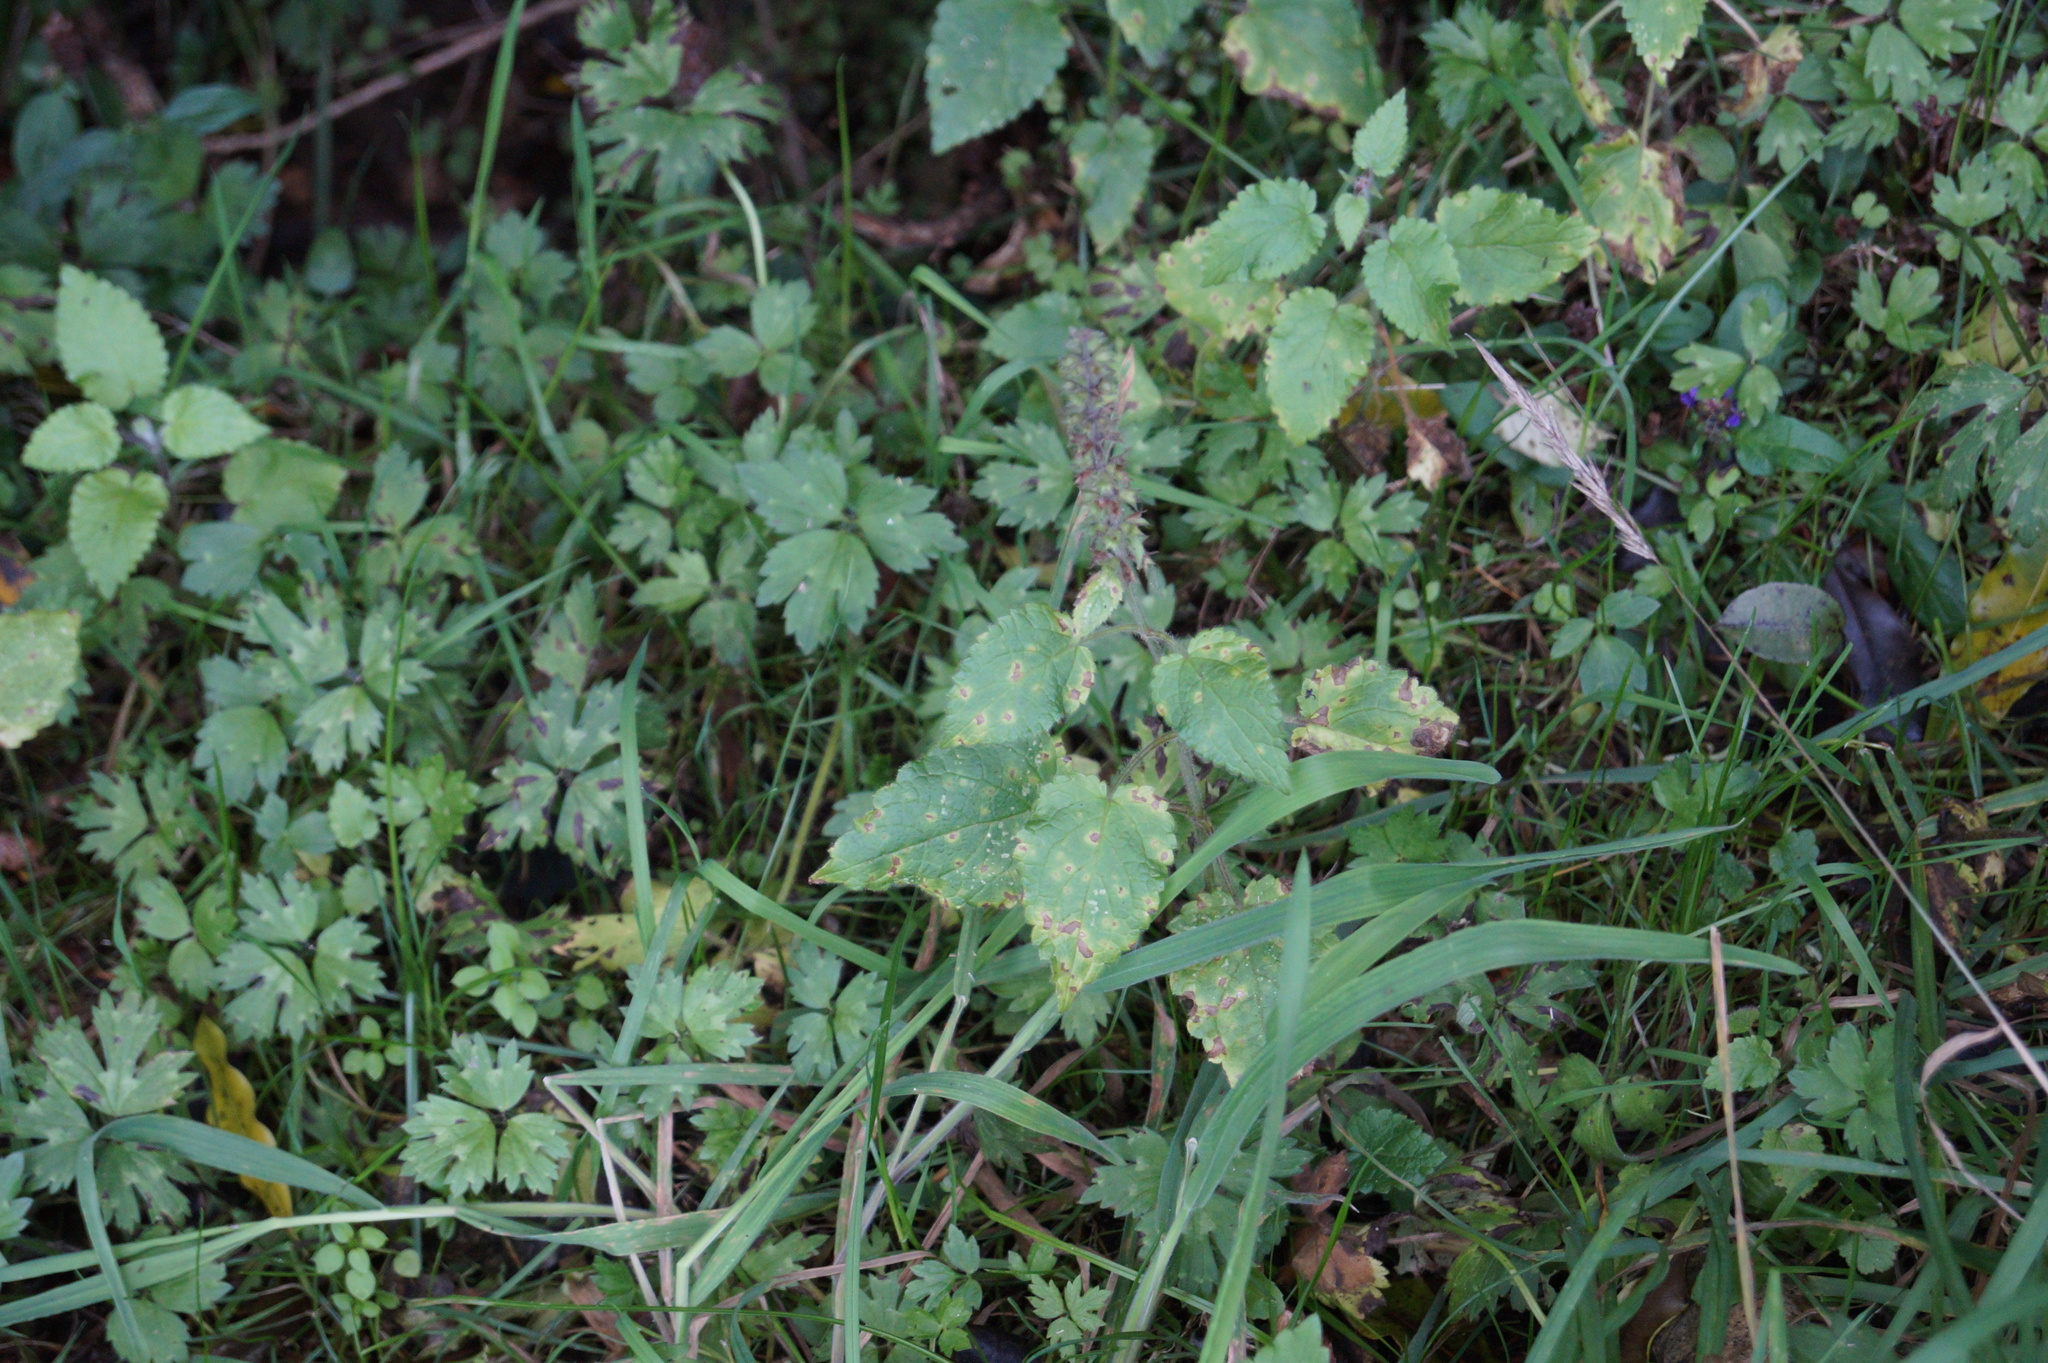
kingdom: Plantae
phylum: Tracheophyta
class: Magnoliopsida
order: Lamiales
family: Lamiaceae
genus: Stachys
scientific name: Stachys sylvatica
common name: Hedge woundwort
